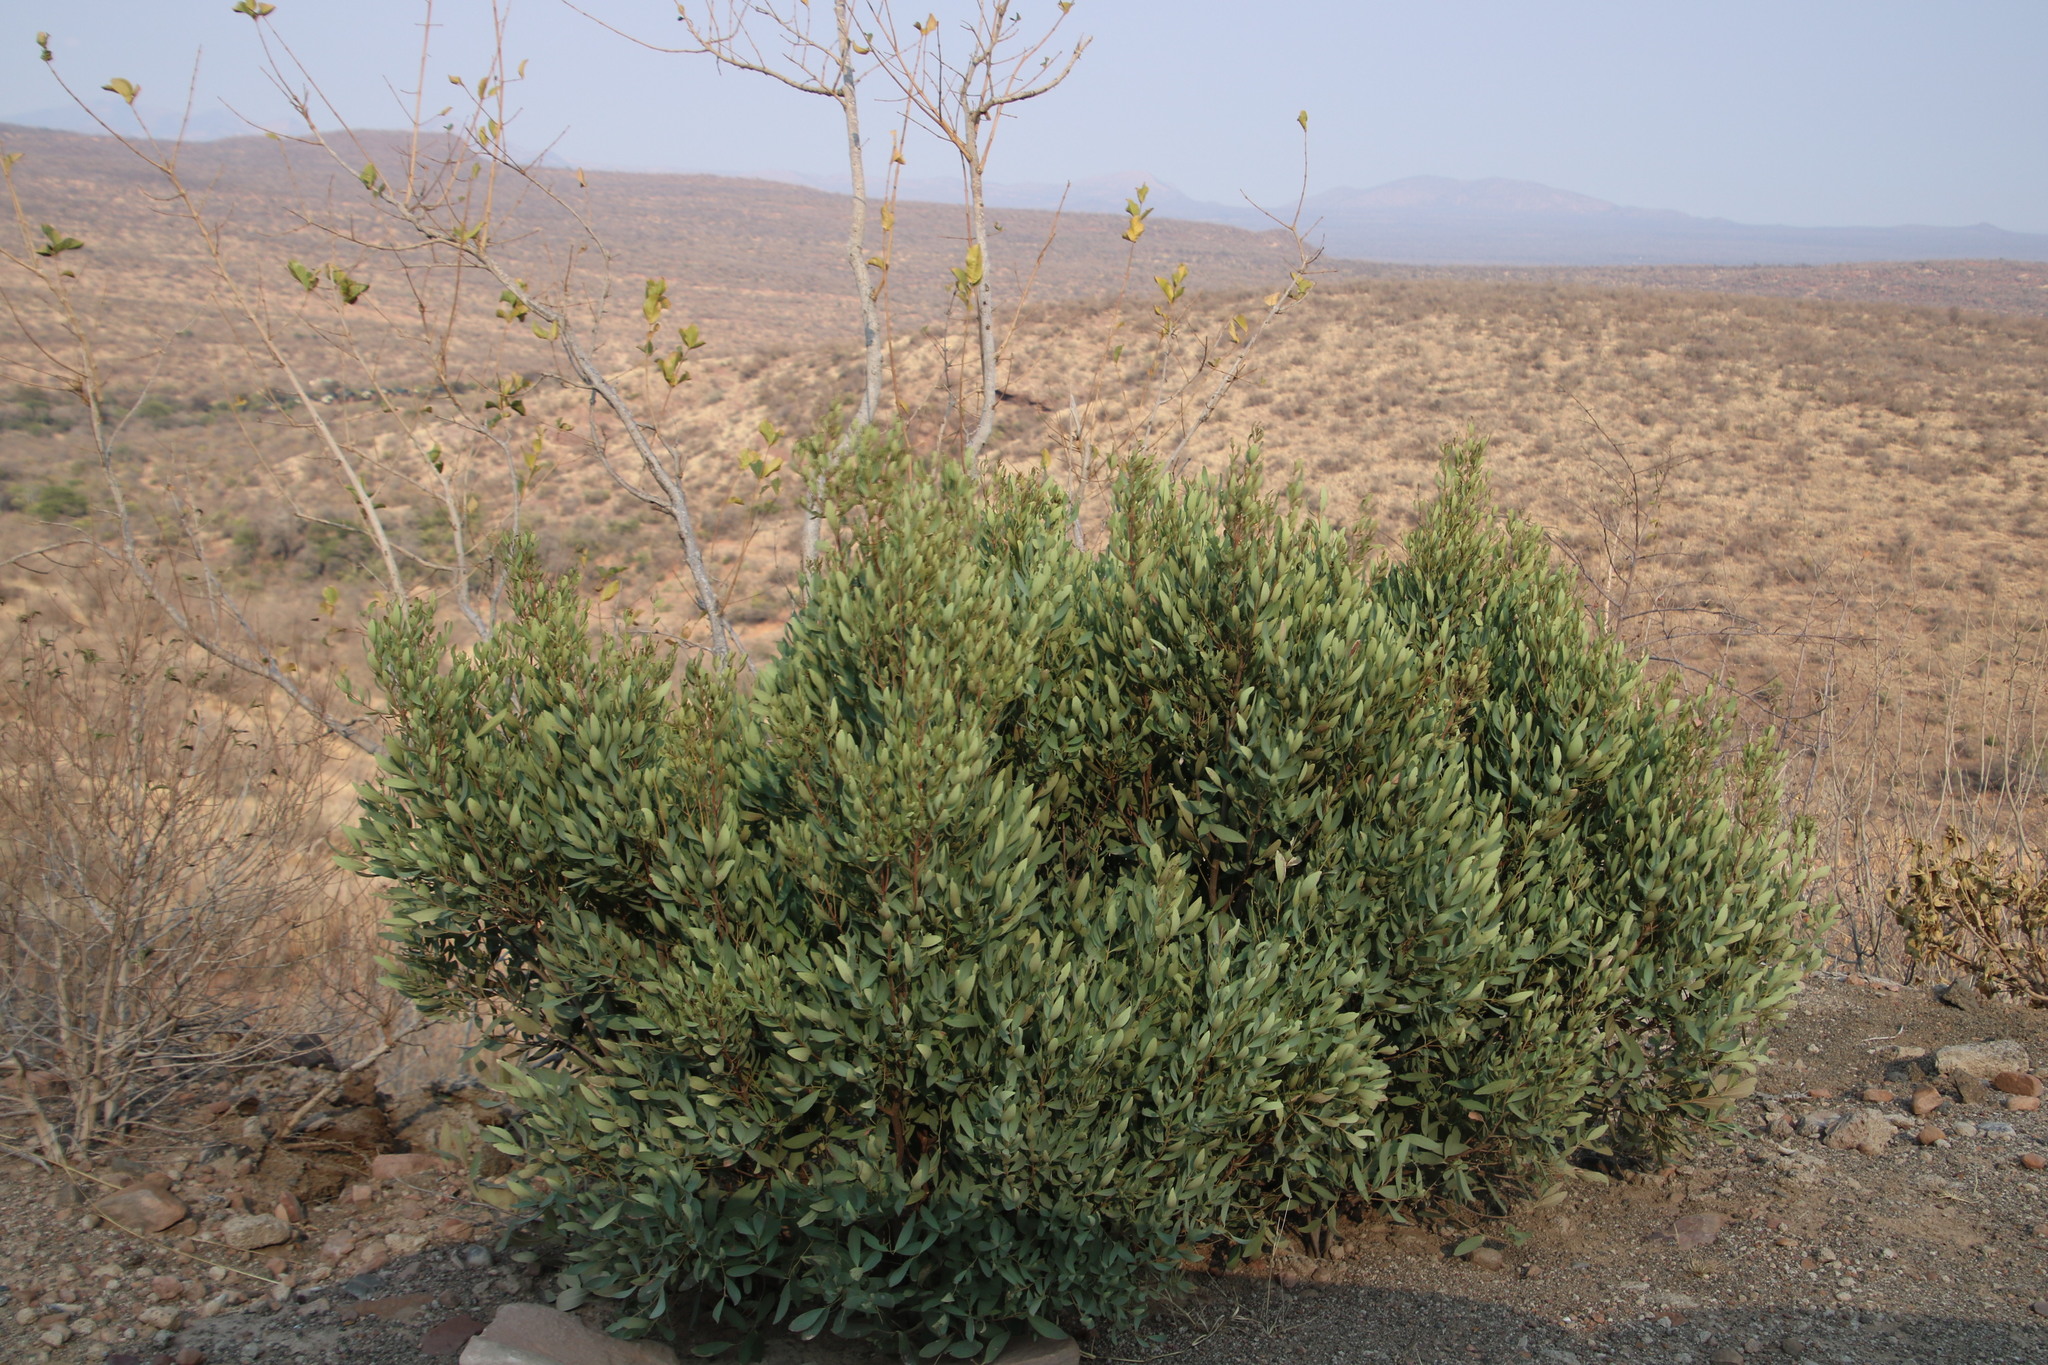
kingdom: Plantae
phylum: Tracheophyta
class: Magnoliopsida
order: Ericales
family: Ebenaceae
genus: Euclea
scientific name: Euclea crispa
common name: Blue guarri
